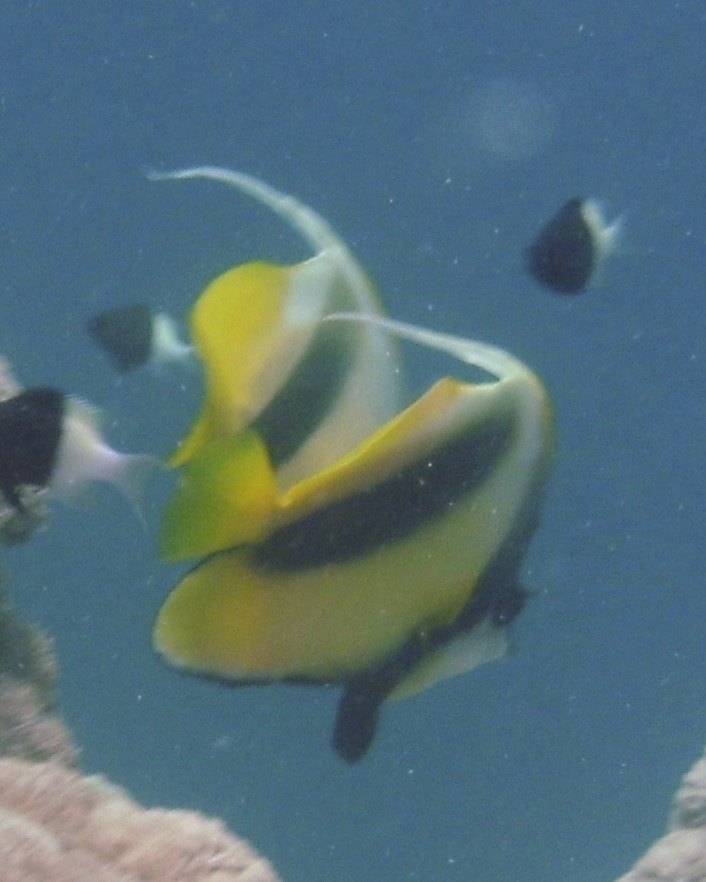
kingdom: Animalia
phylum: Chordata
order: Perciformes
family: Chaetodontidae
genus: Heniochus
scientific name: Heniochus intermedius
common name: Red sea bannerfish
